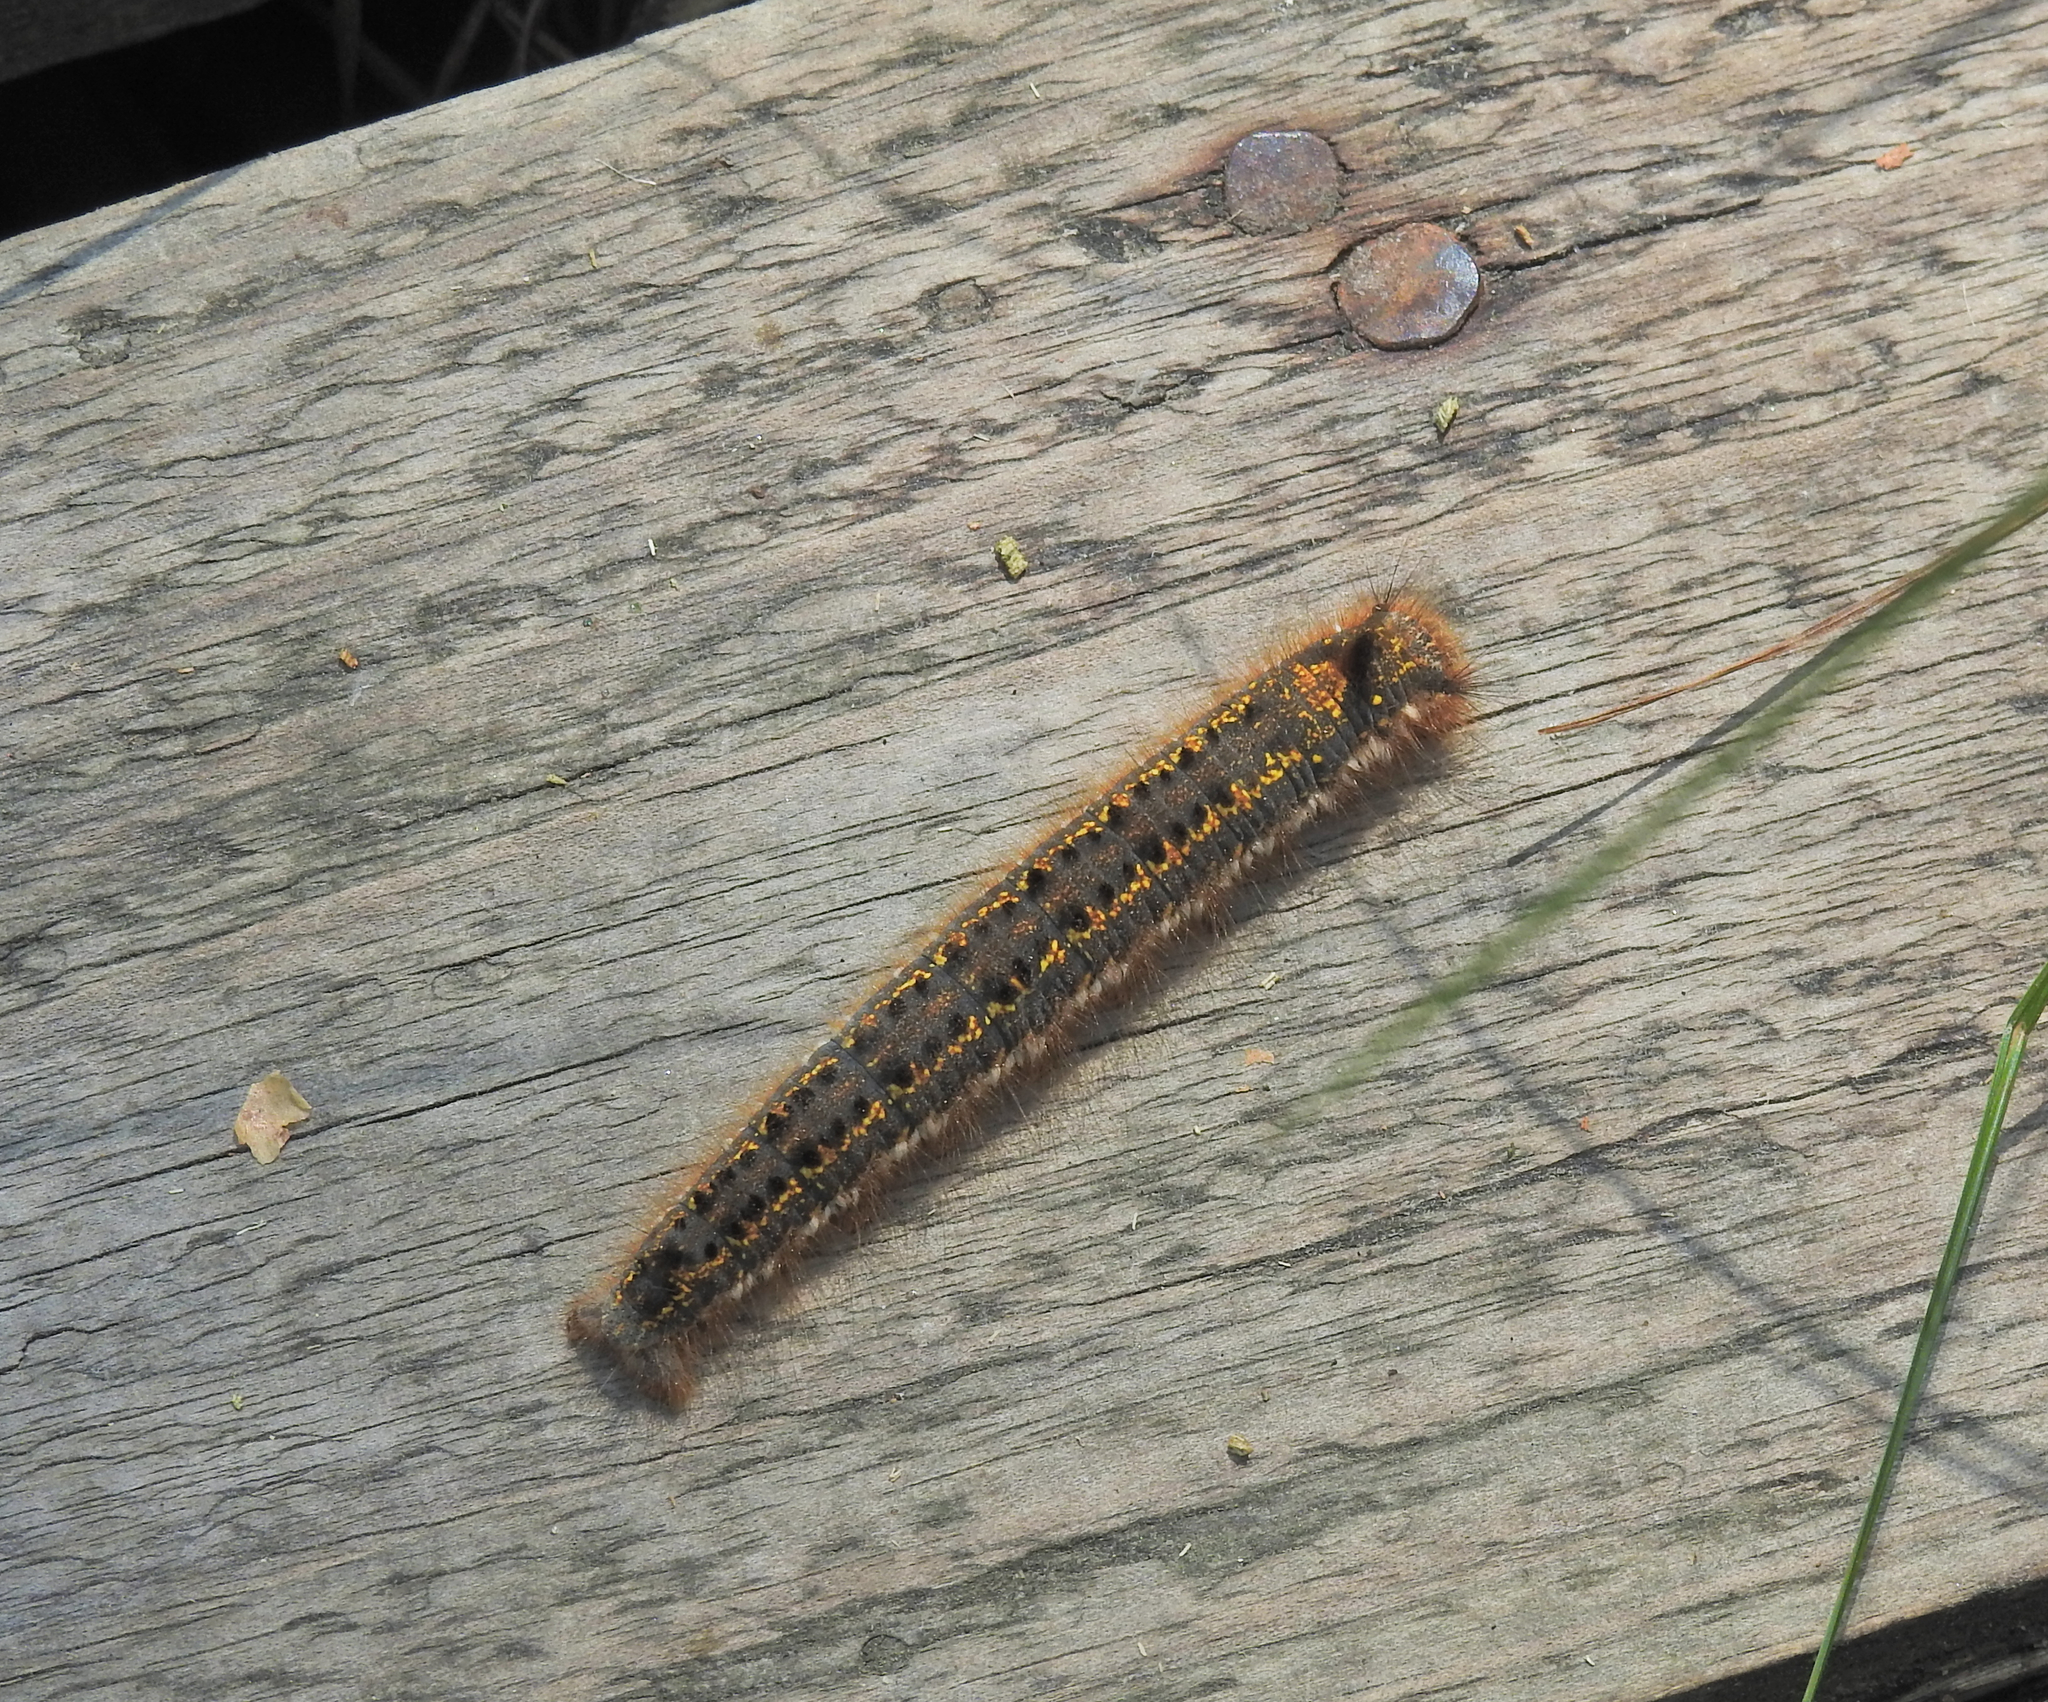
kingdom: Animalia
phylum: Arthropoda
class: Insecta
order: Lepidoptera
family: Lasiocampidae
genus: Euthrix
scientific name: Euthrix potatoria
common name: Drinker
